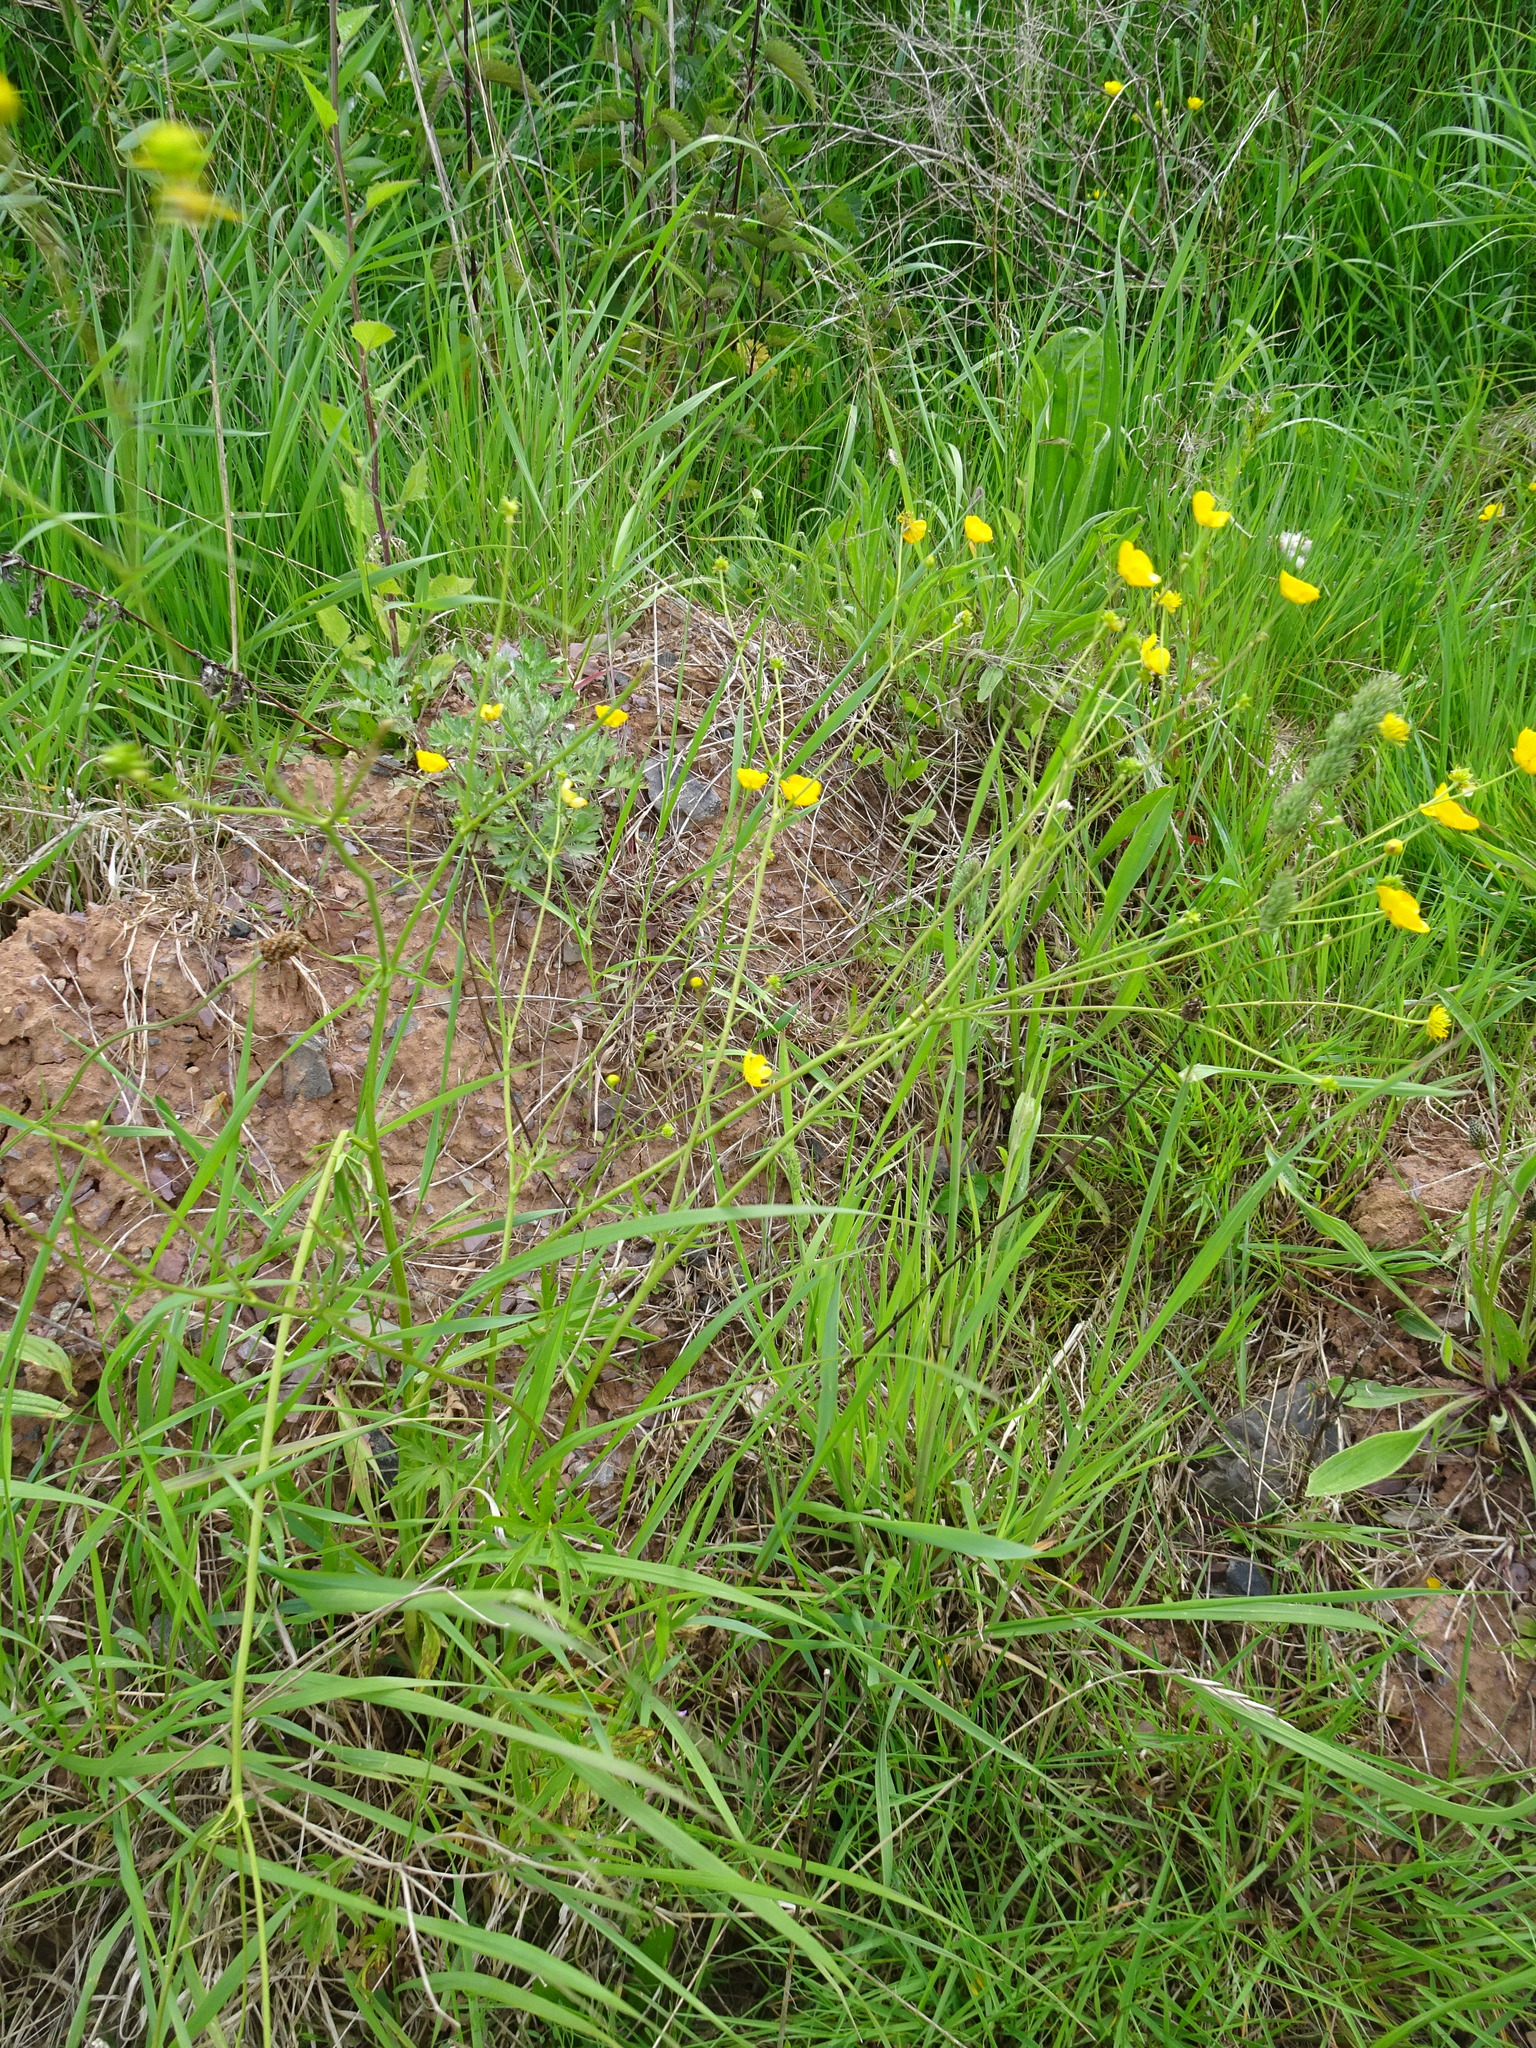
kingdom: Plantae
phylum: Tracheophyta
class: Magnoliopsida
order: Ranunculales
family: Ranunculaceae
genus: Ranunculus
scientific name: Ranunculus acris
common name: Meadow buttercup
